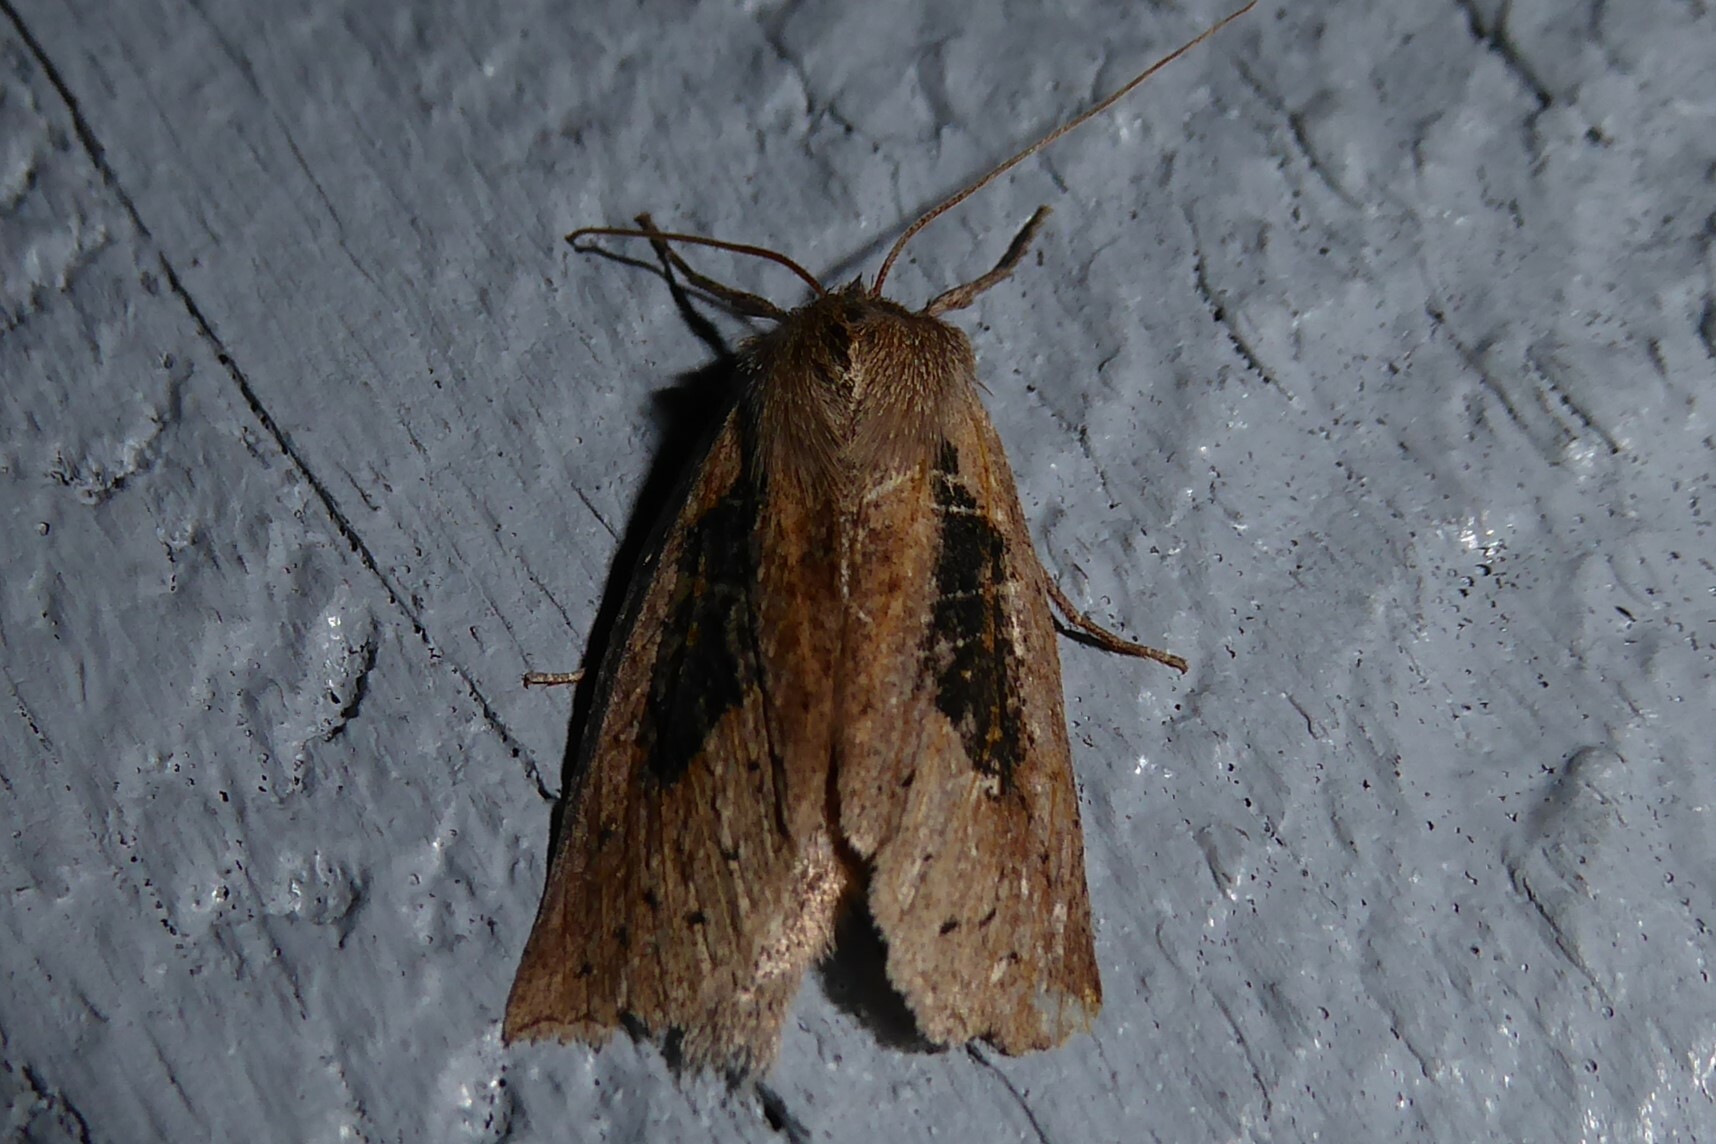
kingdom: Animalia
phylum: Arthropoda
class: Insecta
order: Lepidoptera
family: Geometridae
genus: Declana
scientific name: Declana leptomera
